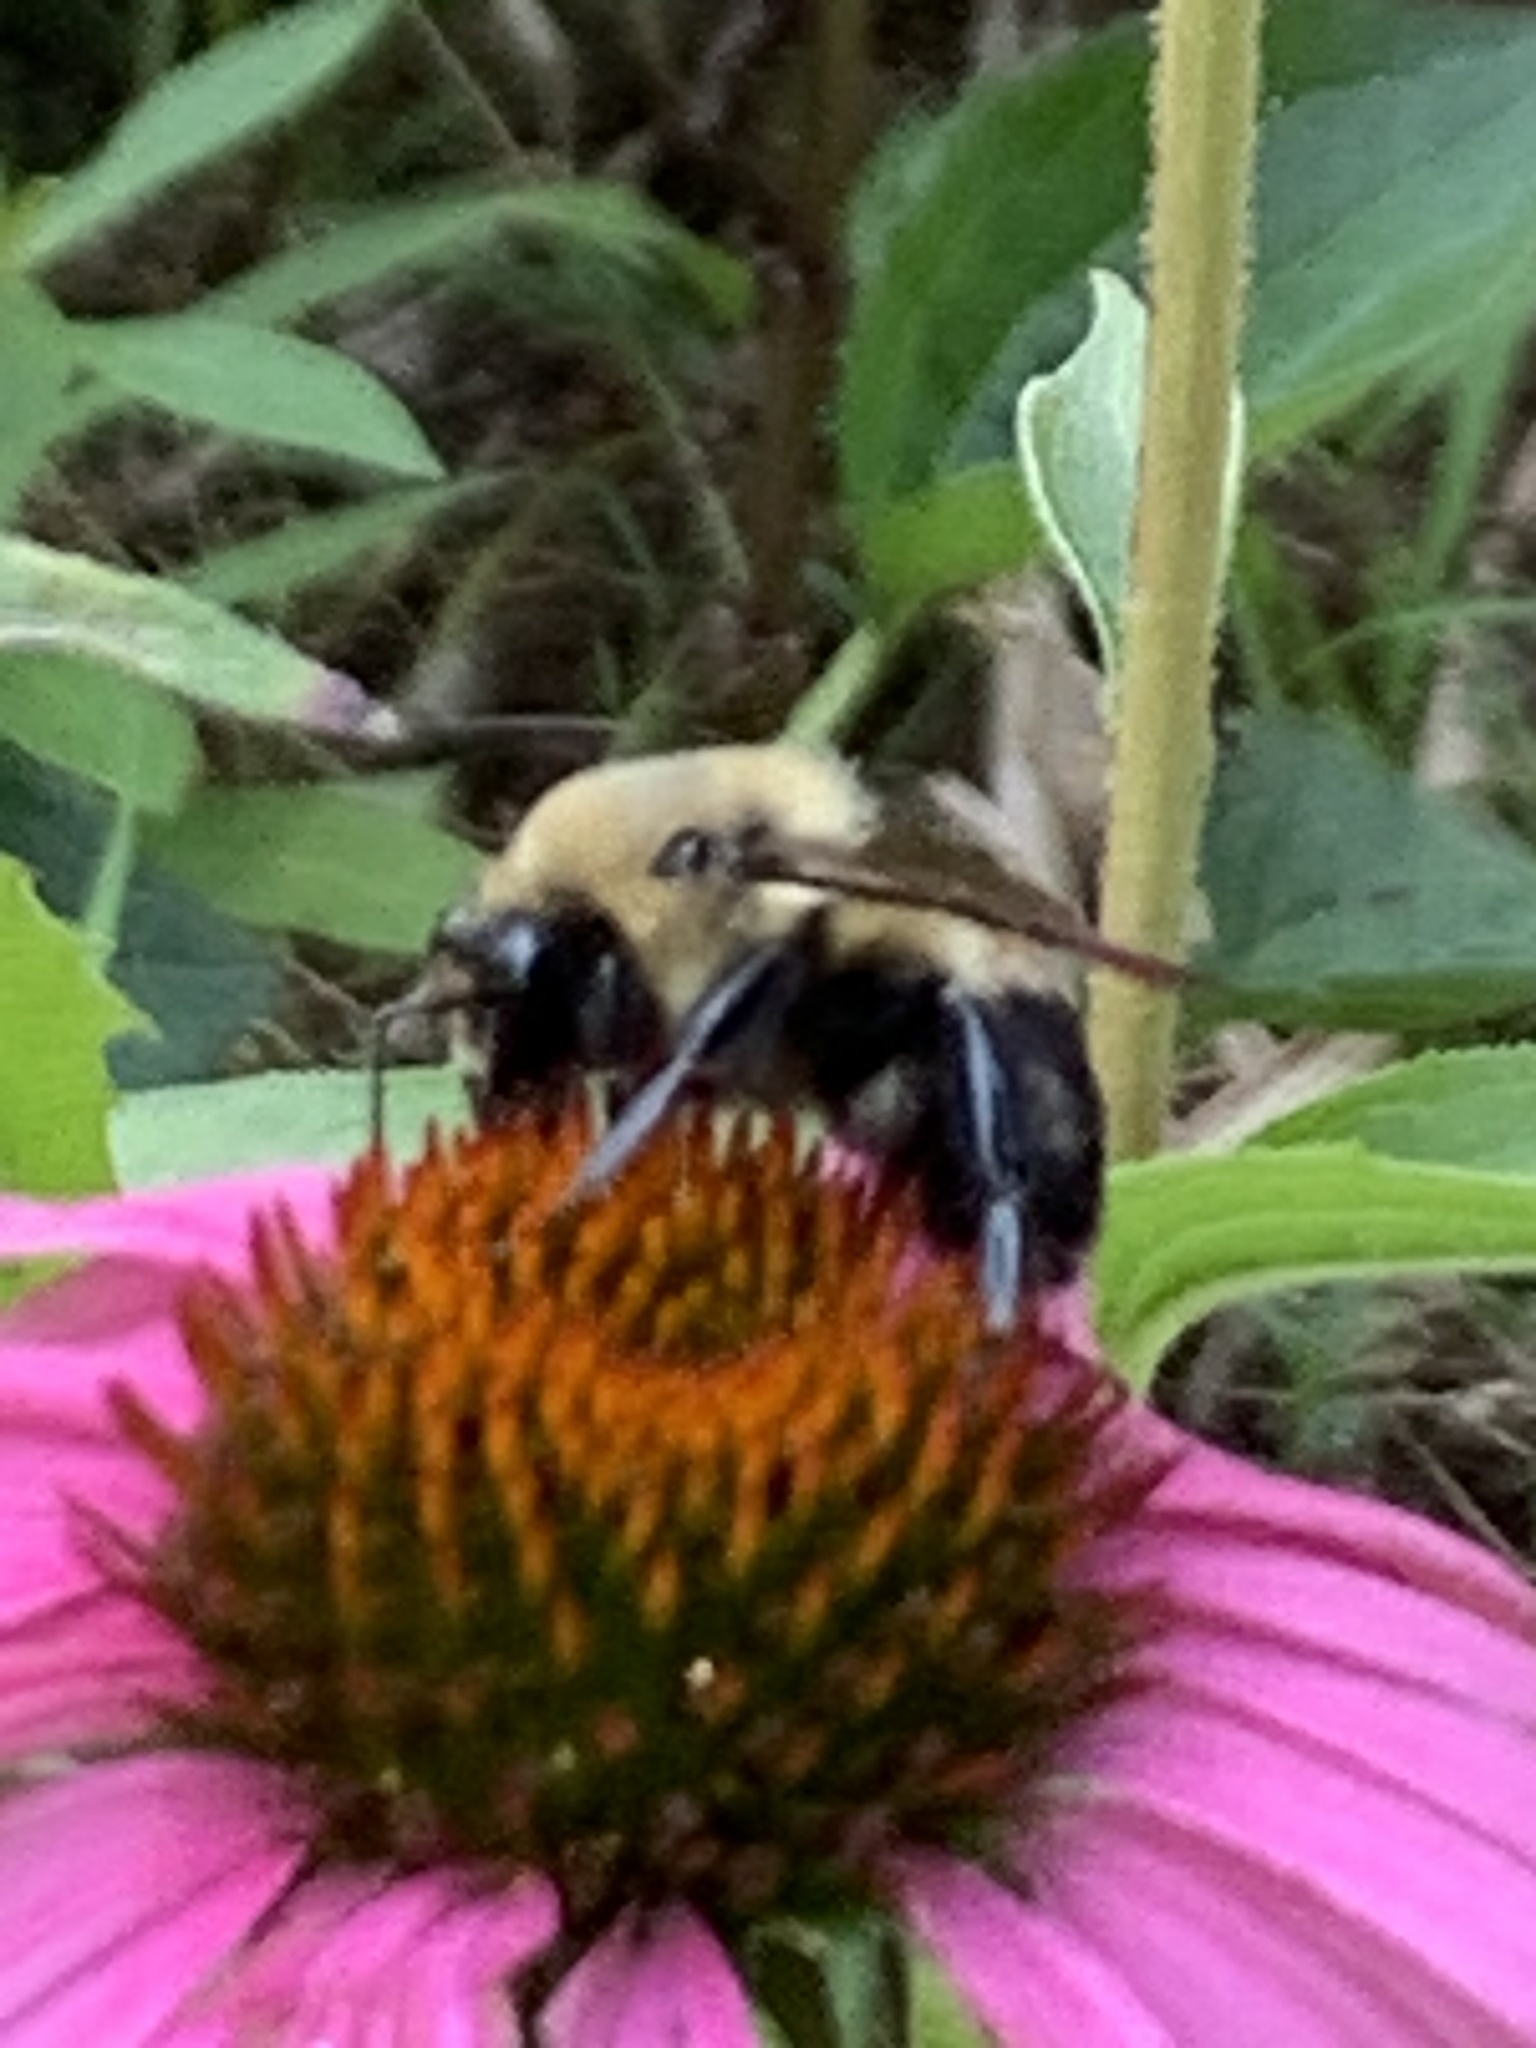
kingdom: Animalia
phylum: Arthropoda
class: Insecta
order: Hymenoptera
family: Apidae
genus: Bombus
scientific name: Bombus griseocollis
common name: Brown-belted bumble bee
